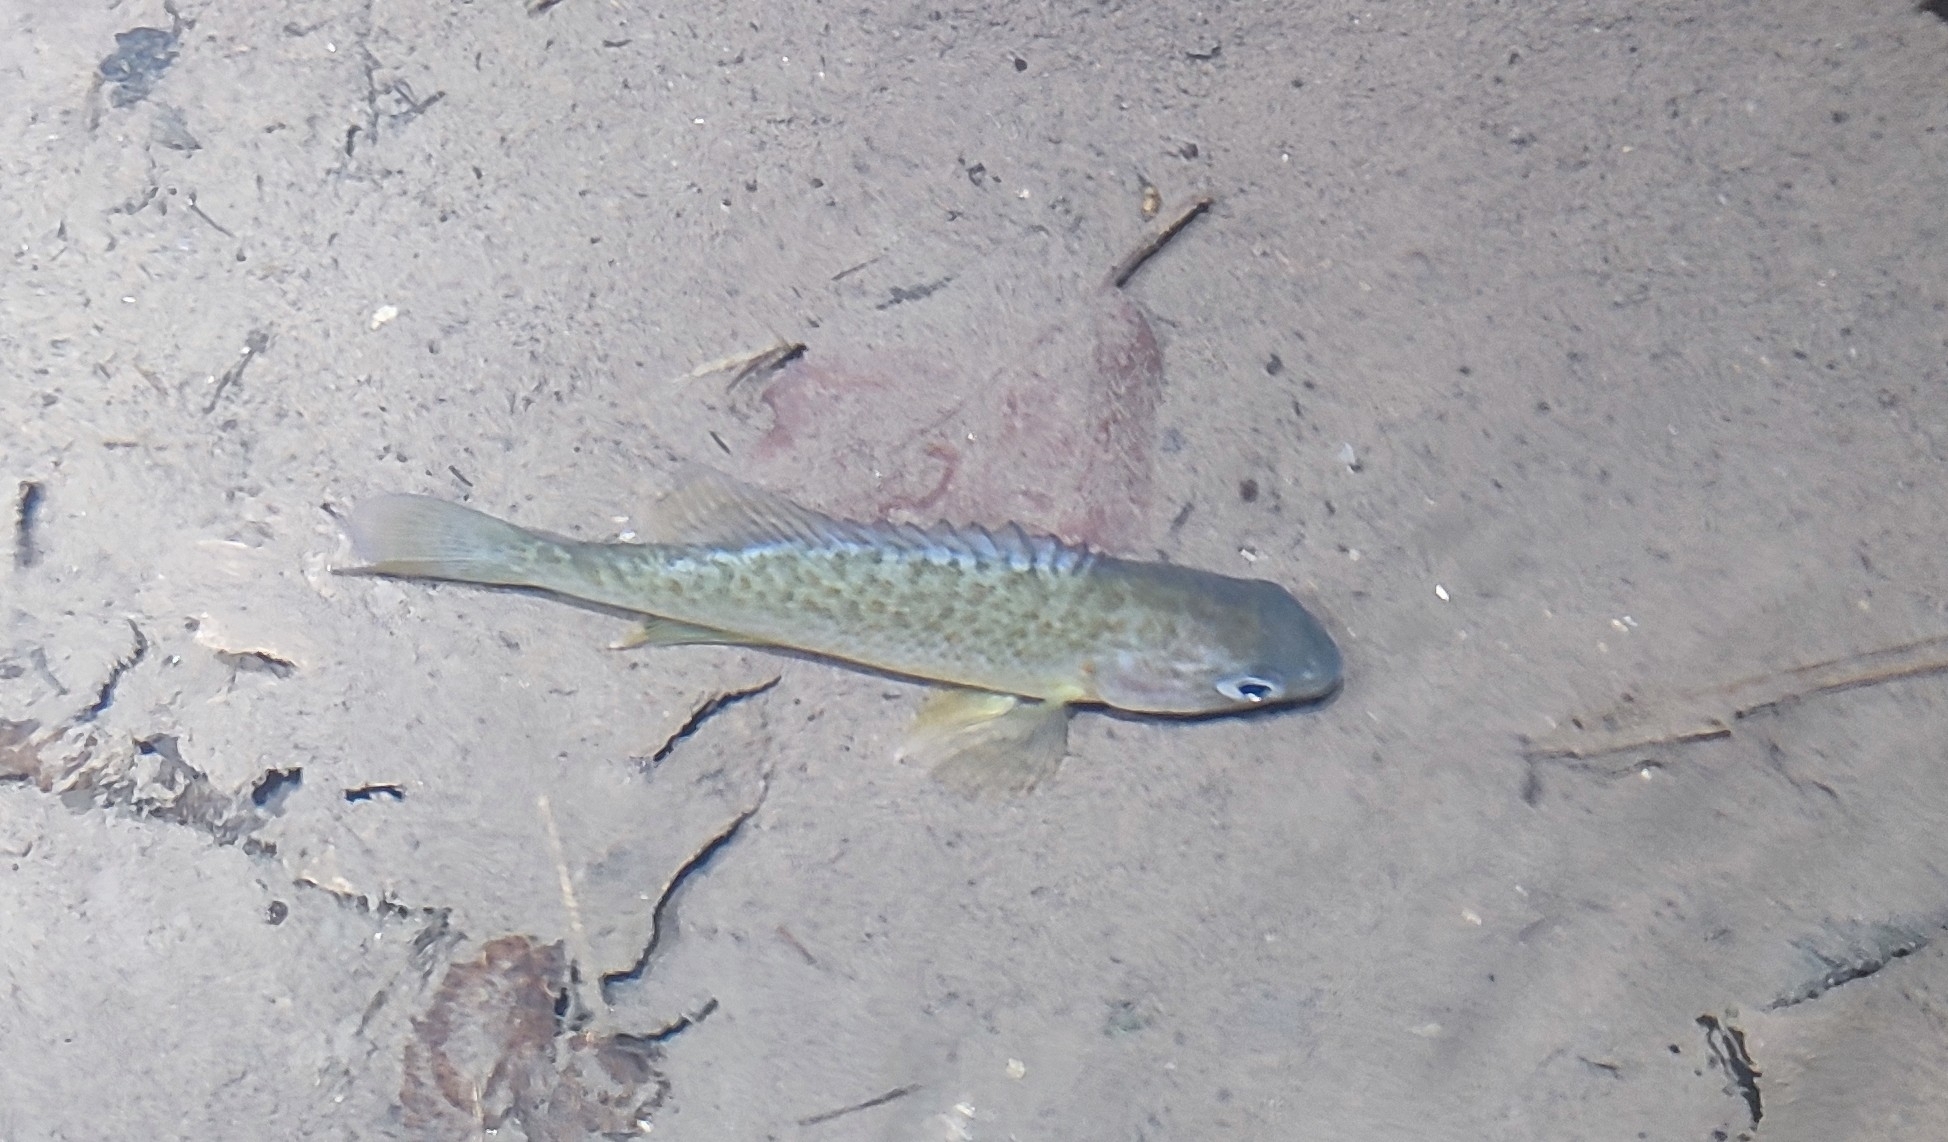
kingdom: Animalia
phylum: Chordata
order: Perciformes
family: Centrarchidae
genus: Lepomis
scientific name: Lepomis gibbosus
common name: Pumpkinseed
